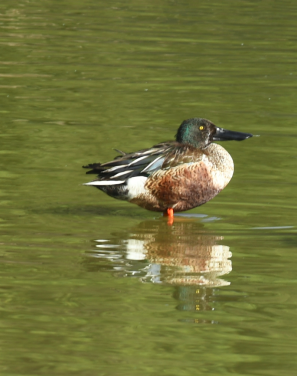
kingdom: Animalia
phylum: Chordata
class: Aves
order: Anseriformes
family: Anatidae
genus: Spatula
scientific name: Spatula clypeata
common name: Northern shoveler
